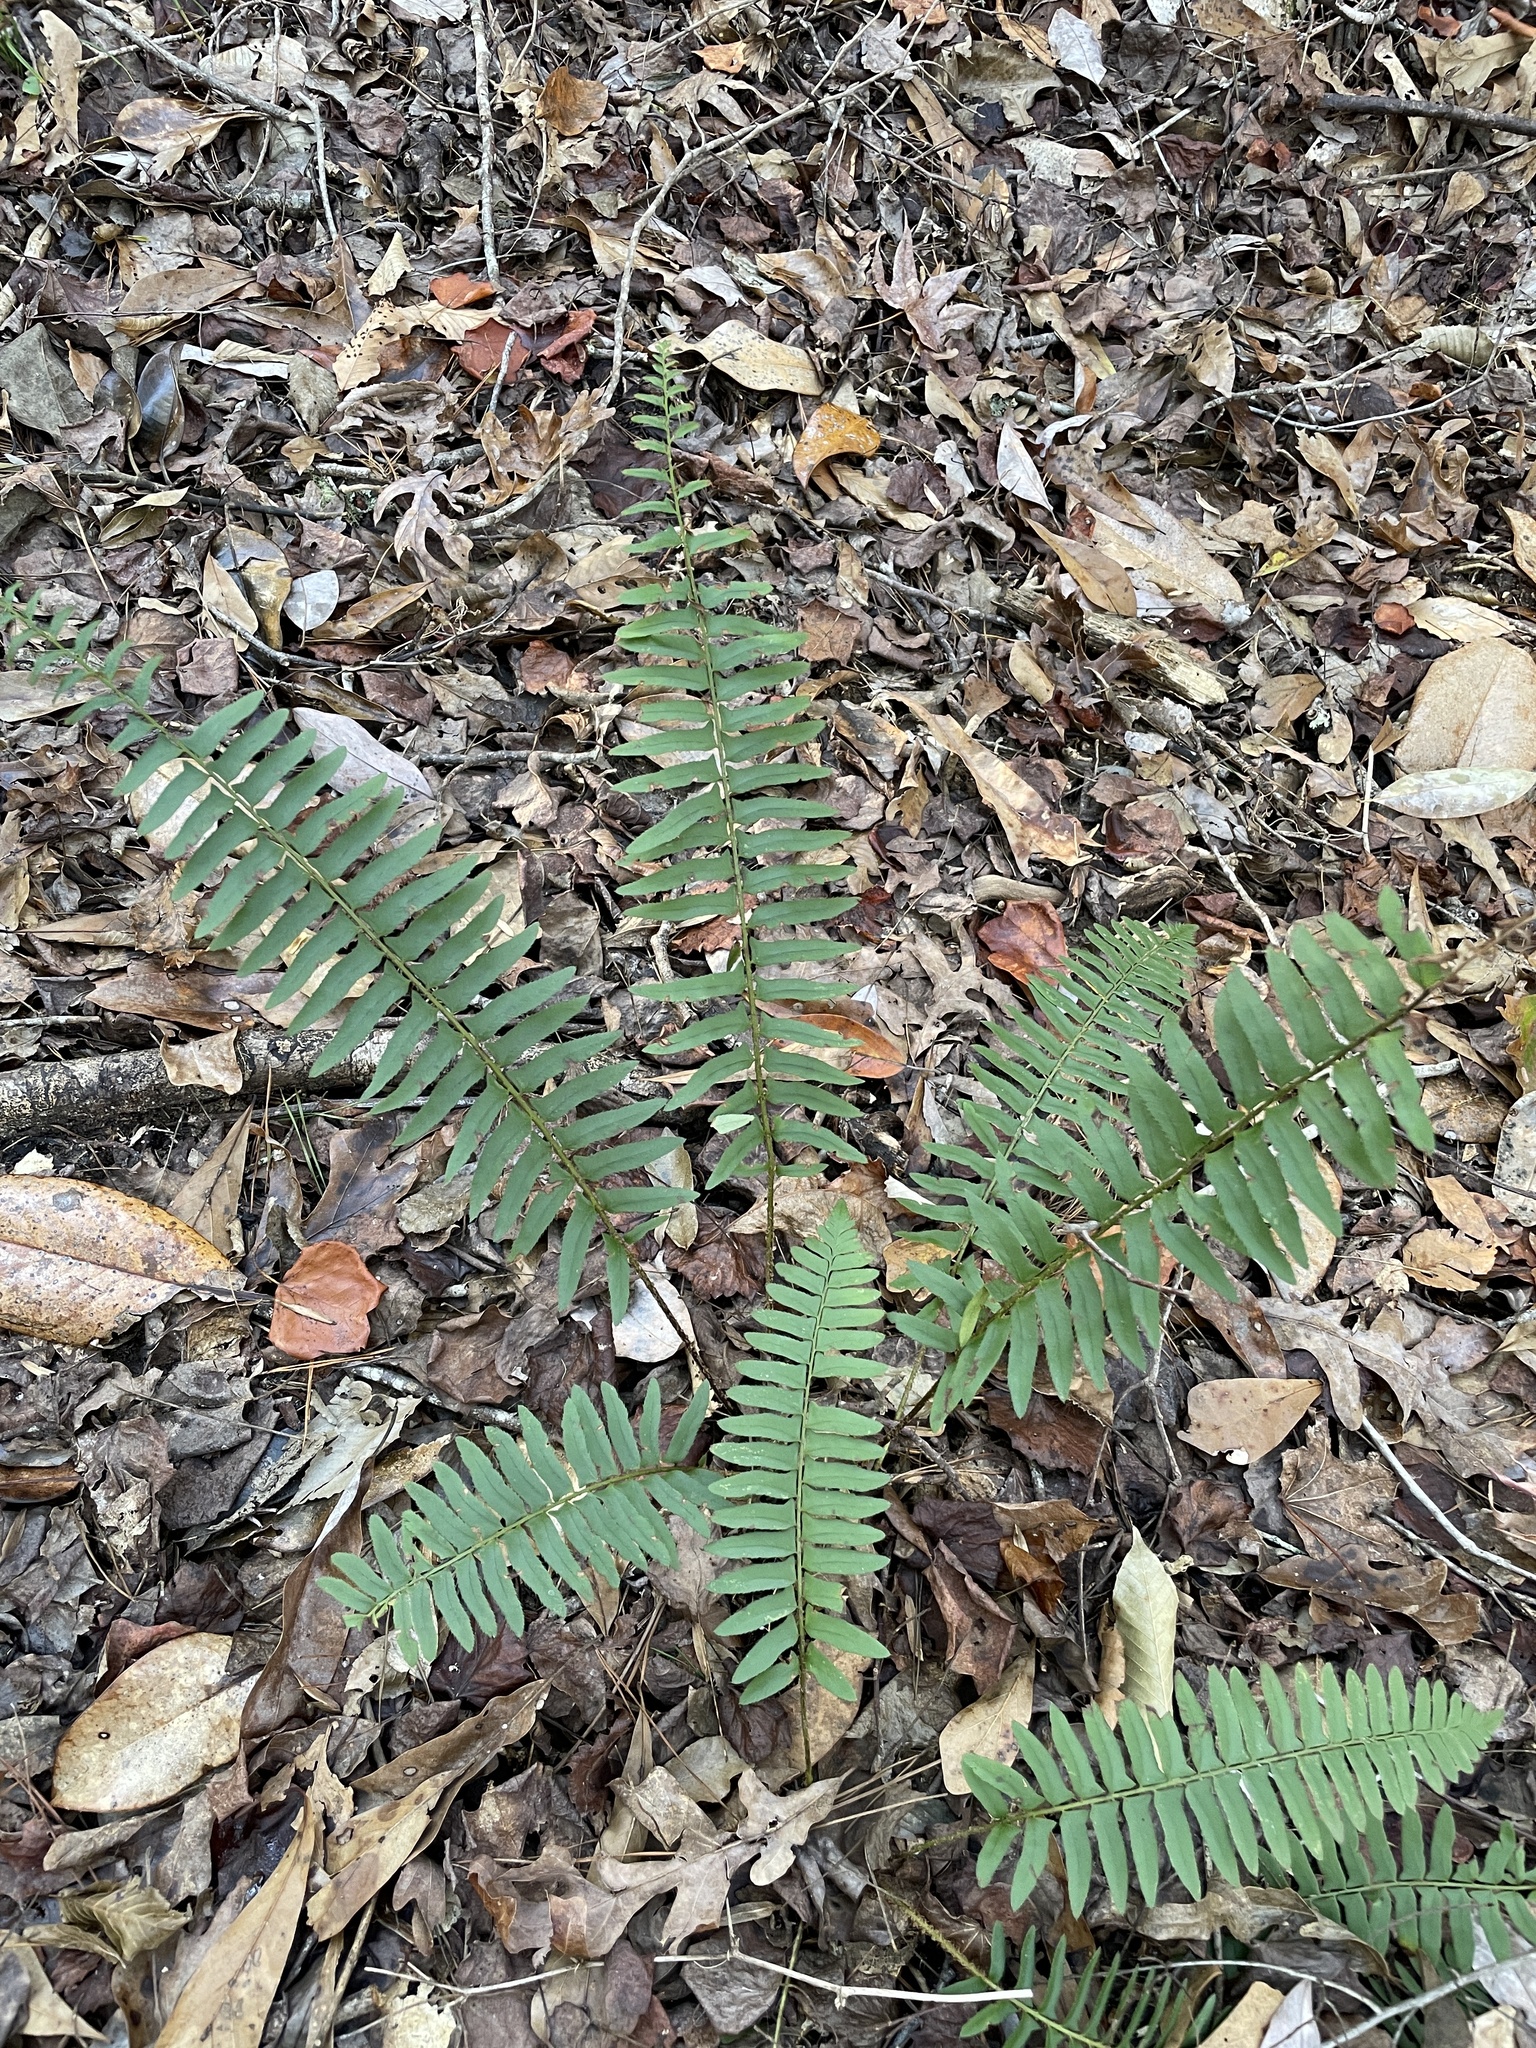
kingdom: Plantae
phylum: Tracheophyta
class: Polypodiopsida
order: Polypodiales
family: Dryopteridaceae
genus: Polystichum
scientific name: Polystichum acrostichoides
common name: Christmas fern
